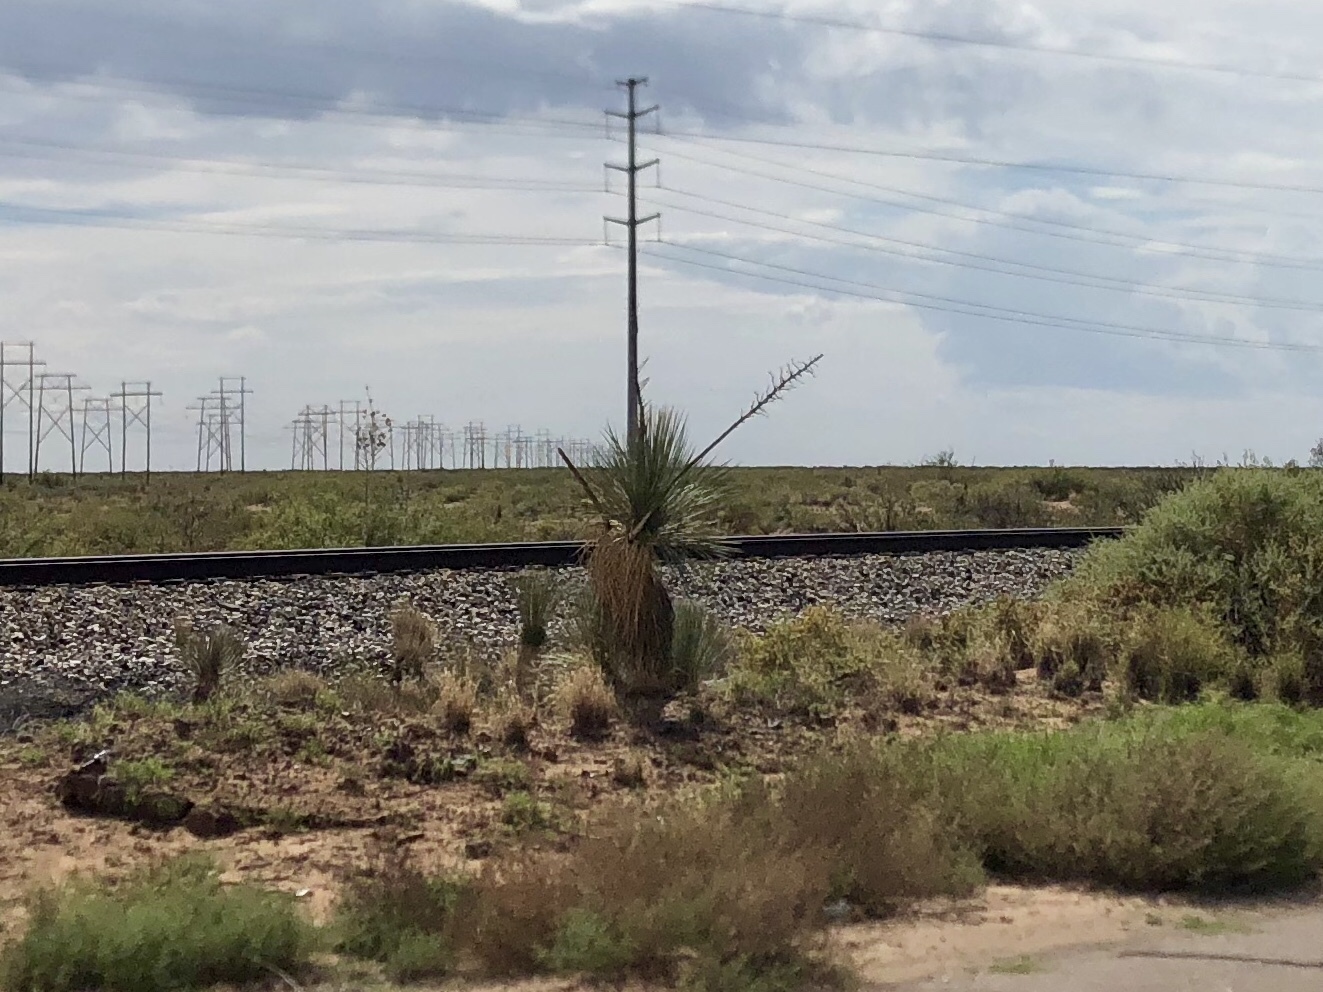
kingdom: Plantae
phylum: Tracheophyta
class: Liliopsida
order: Asparagales
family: Asparagaceae
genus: Yucca
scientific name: Yucca elata
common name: Palmella
